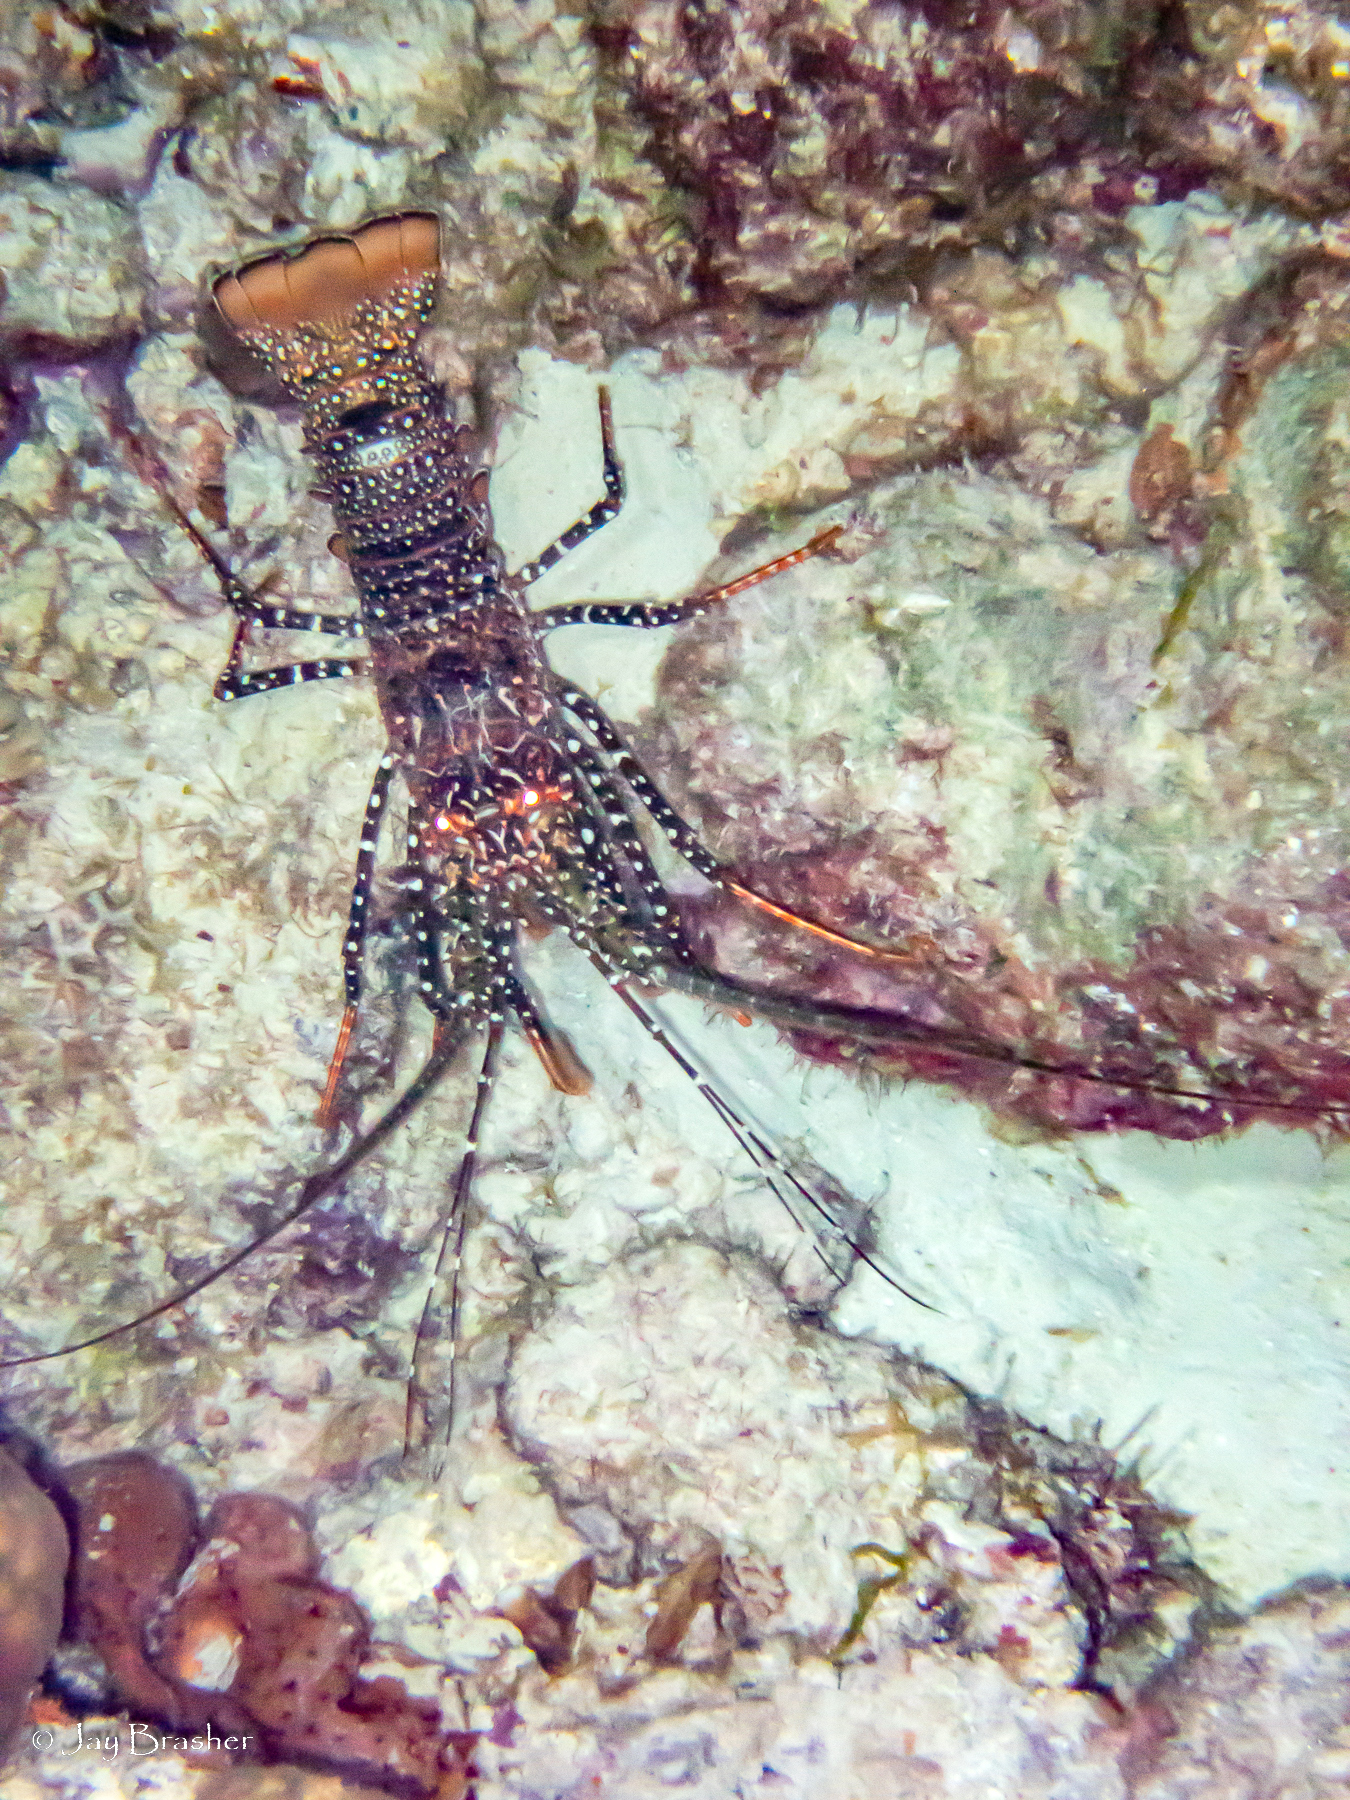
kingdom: Animalia
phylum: Arthropoda
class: Malacostraca
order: Decapoda
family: Palinuridae
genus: Panulirus
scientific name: Panulirus guttatus
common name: Spotted spiny lobster
